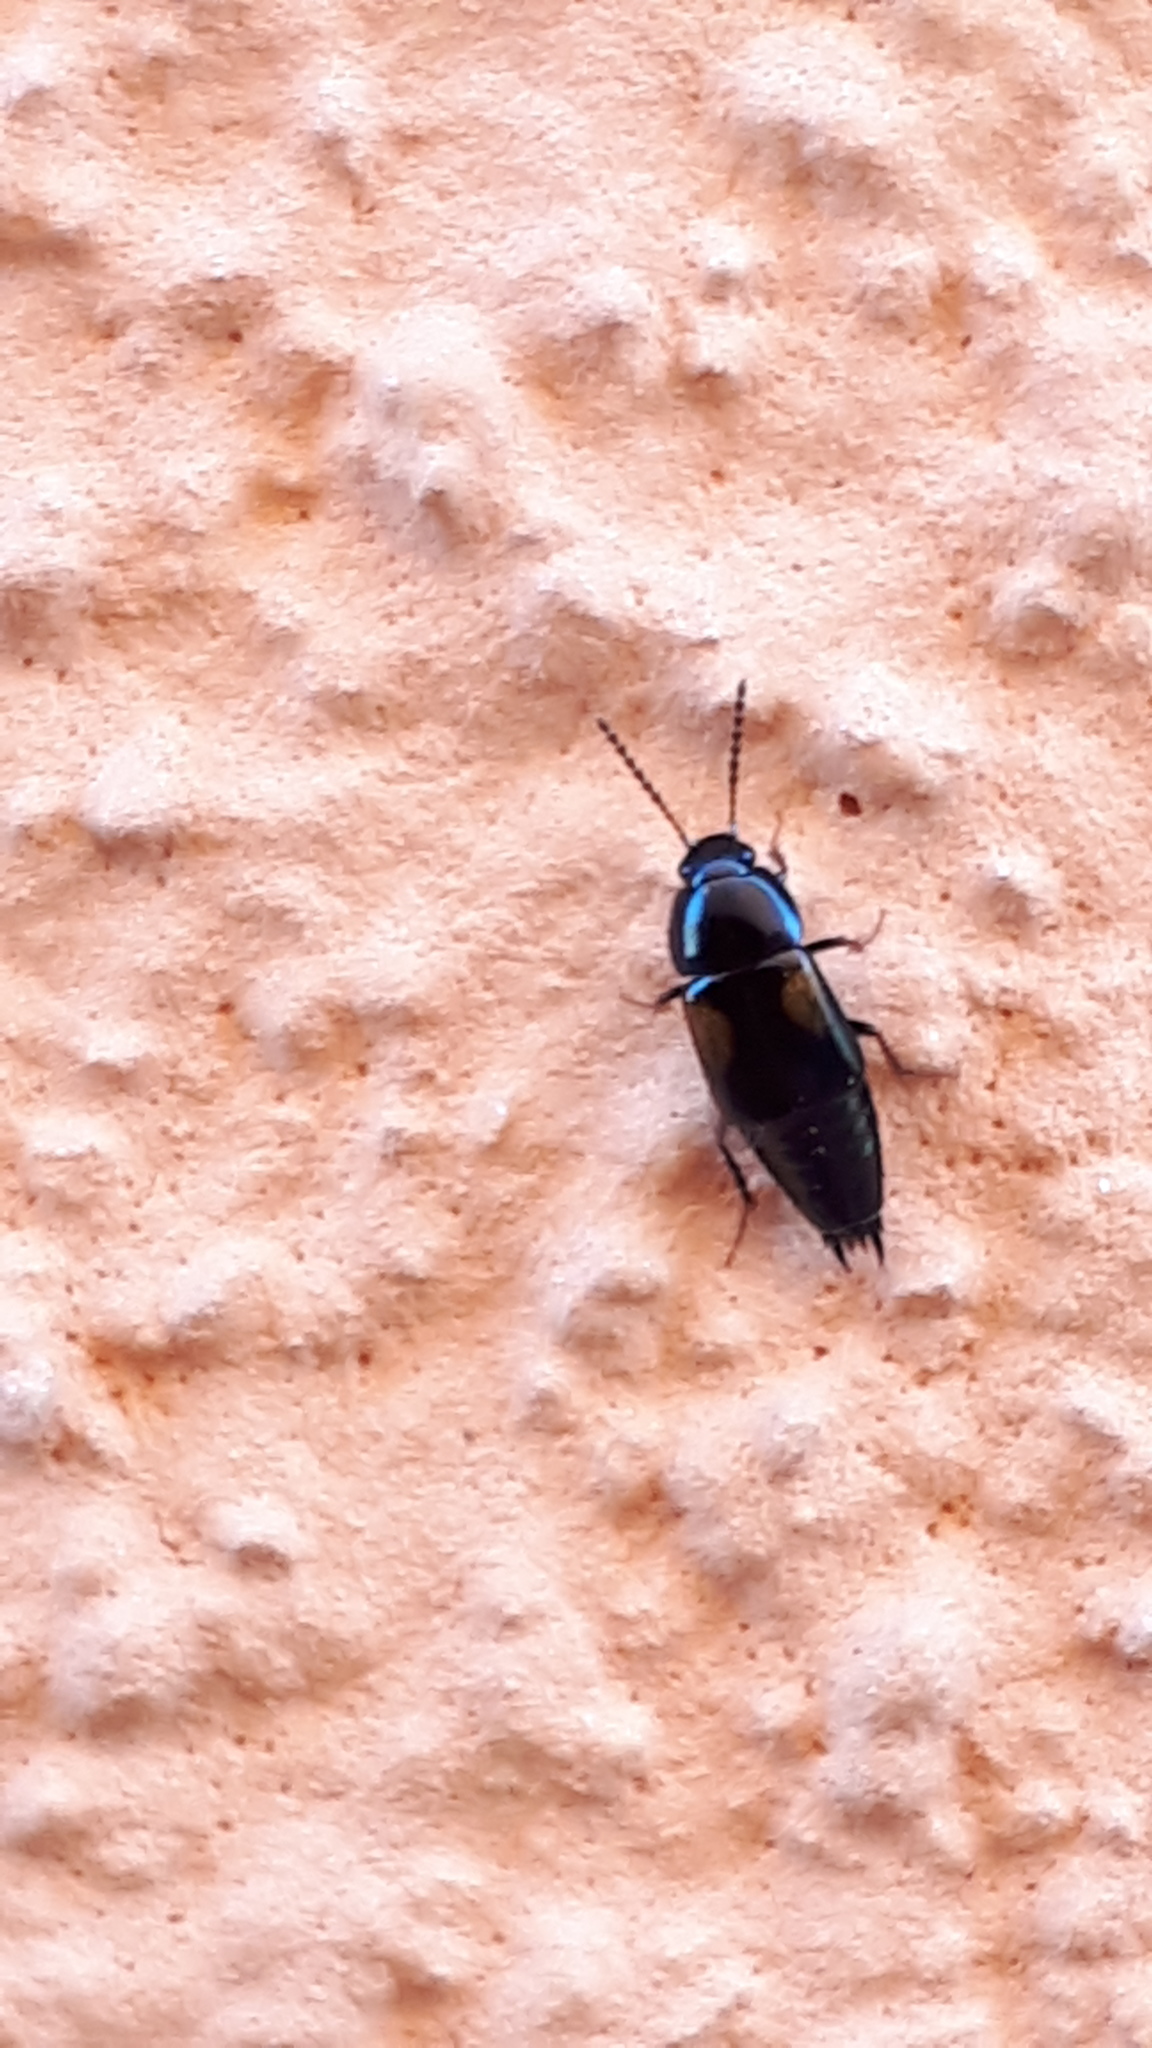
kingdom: Animalia
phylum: Arthropoda
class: Insecta
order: Coleoptera
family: Staphylinidae
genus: Tachinus
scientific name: Tachinus subterraneus
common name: Staph beetle
